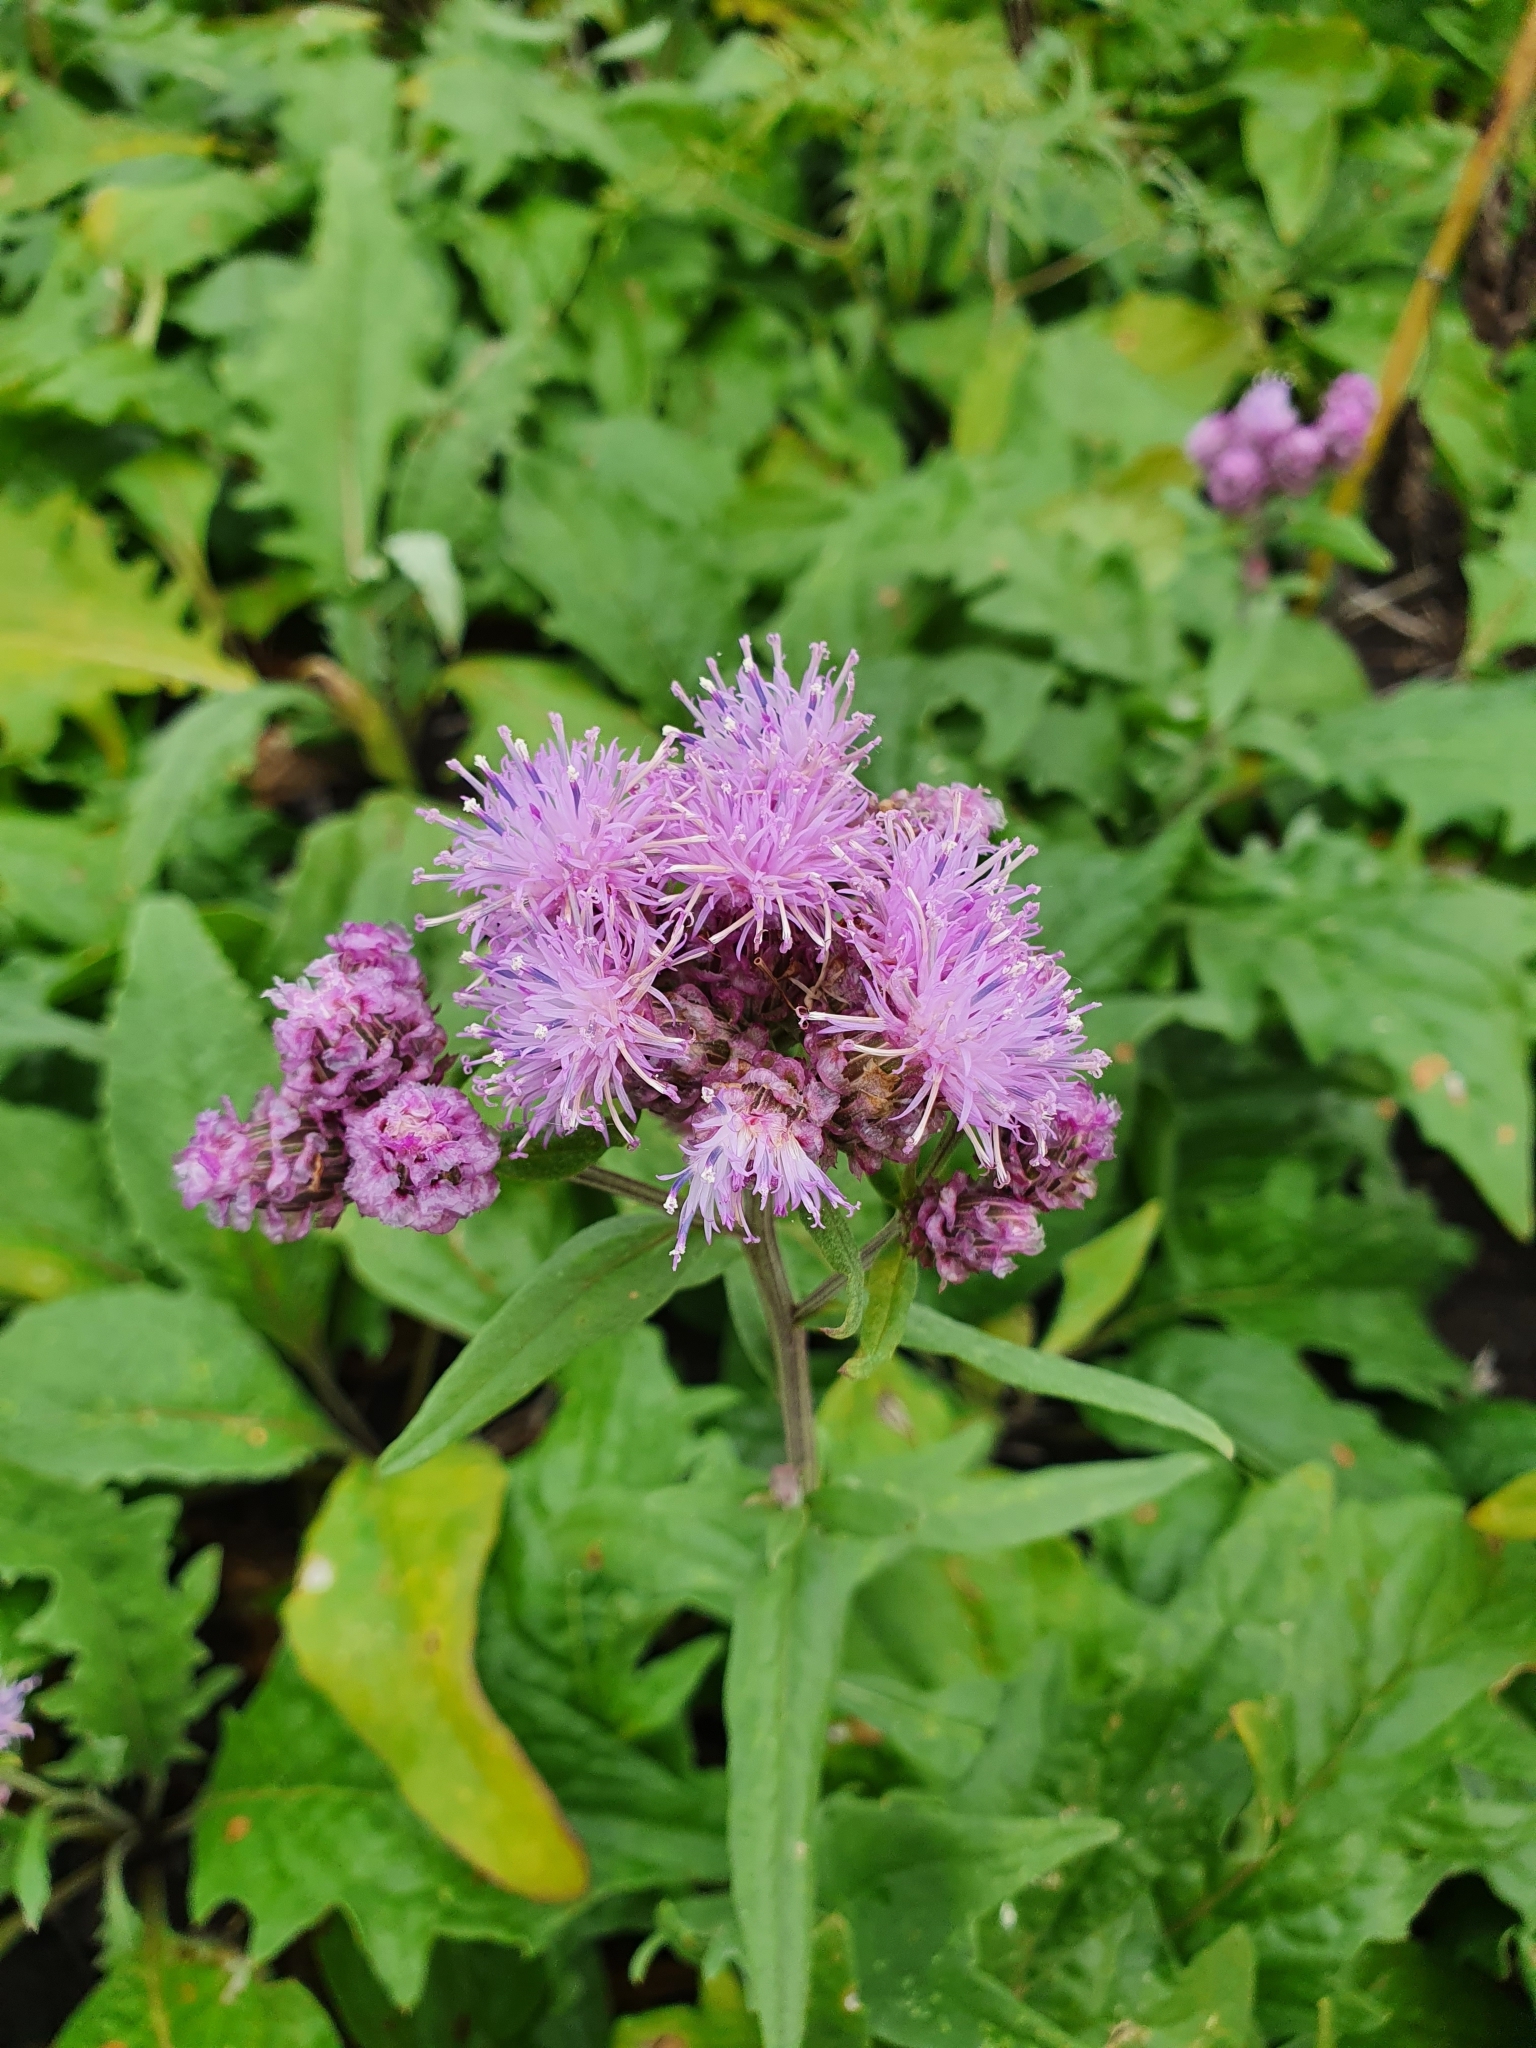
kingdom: Plantae
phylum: Tracheophyta
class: Magnoliopsida
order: Asterales
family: Asteraceae
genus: Saussurea
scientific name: Saussurea amara
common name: Alberta sawwort
